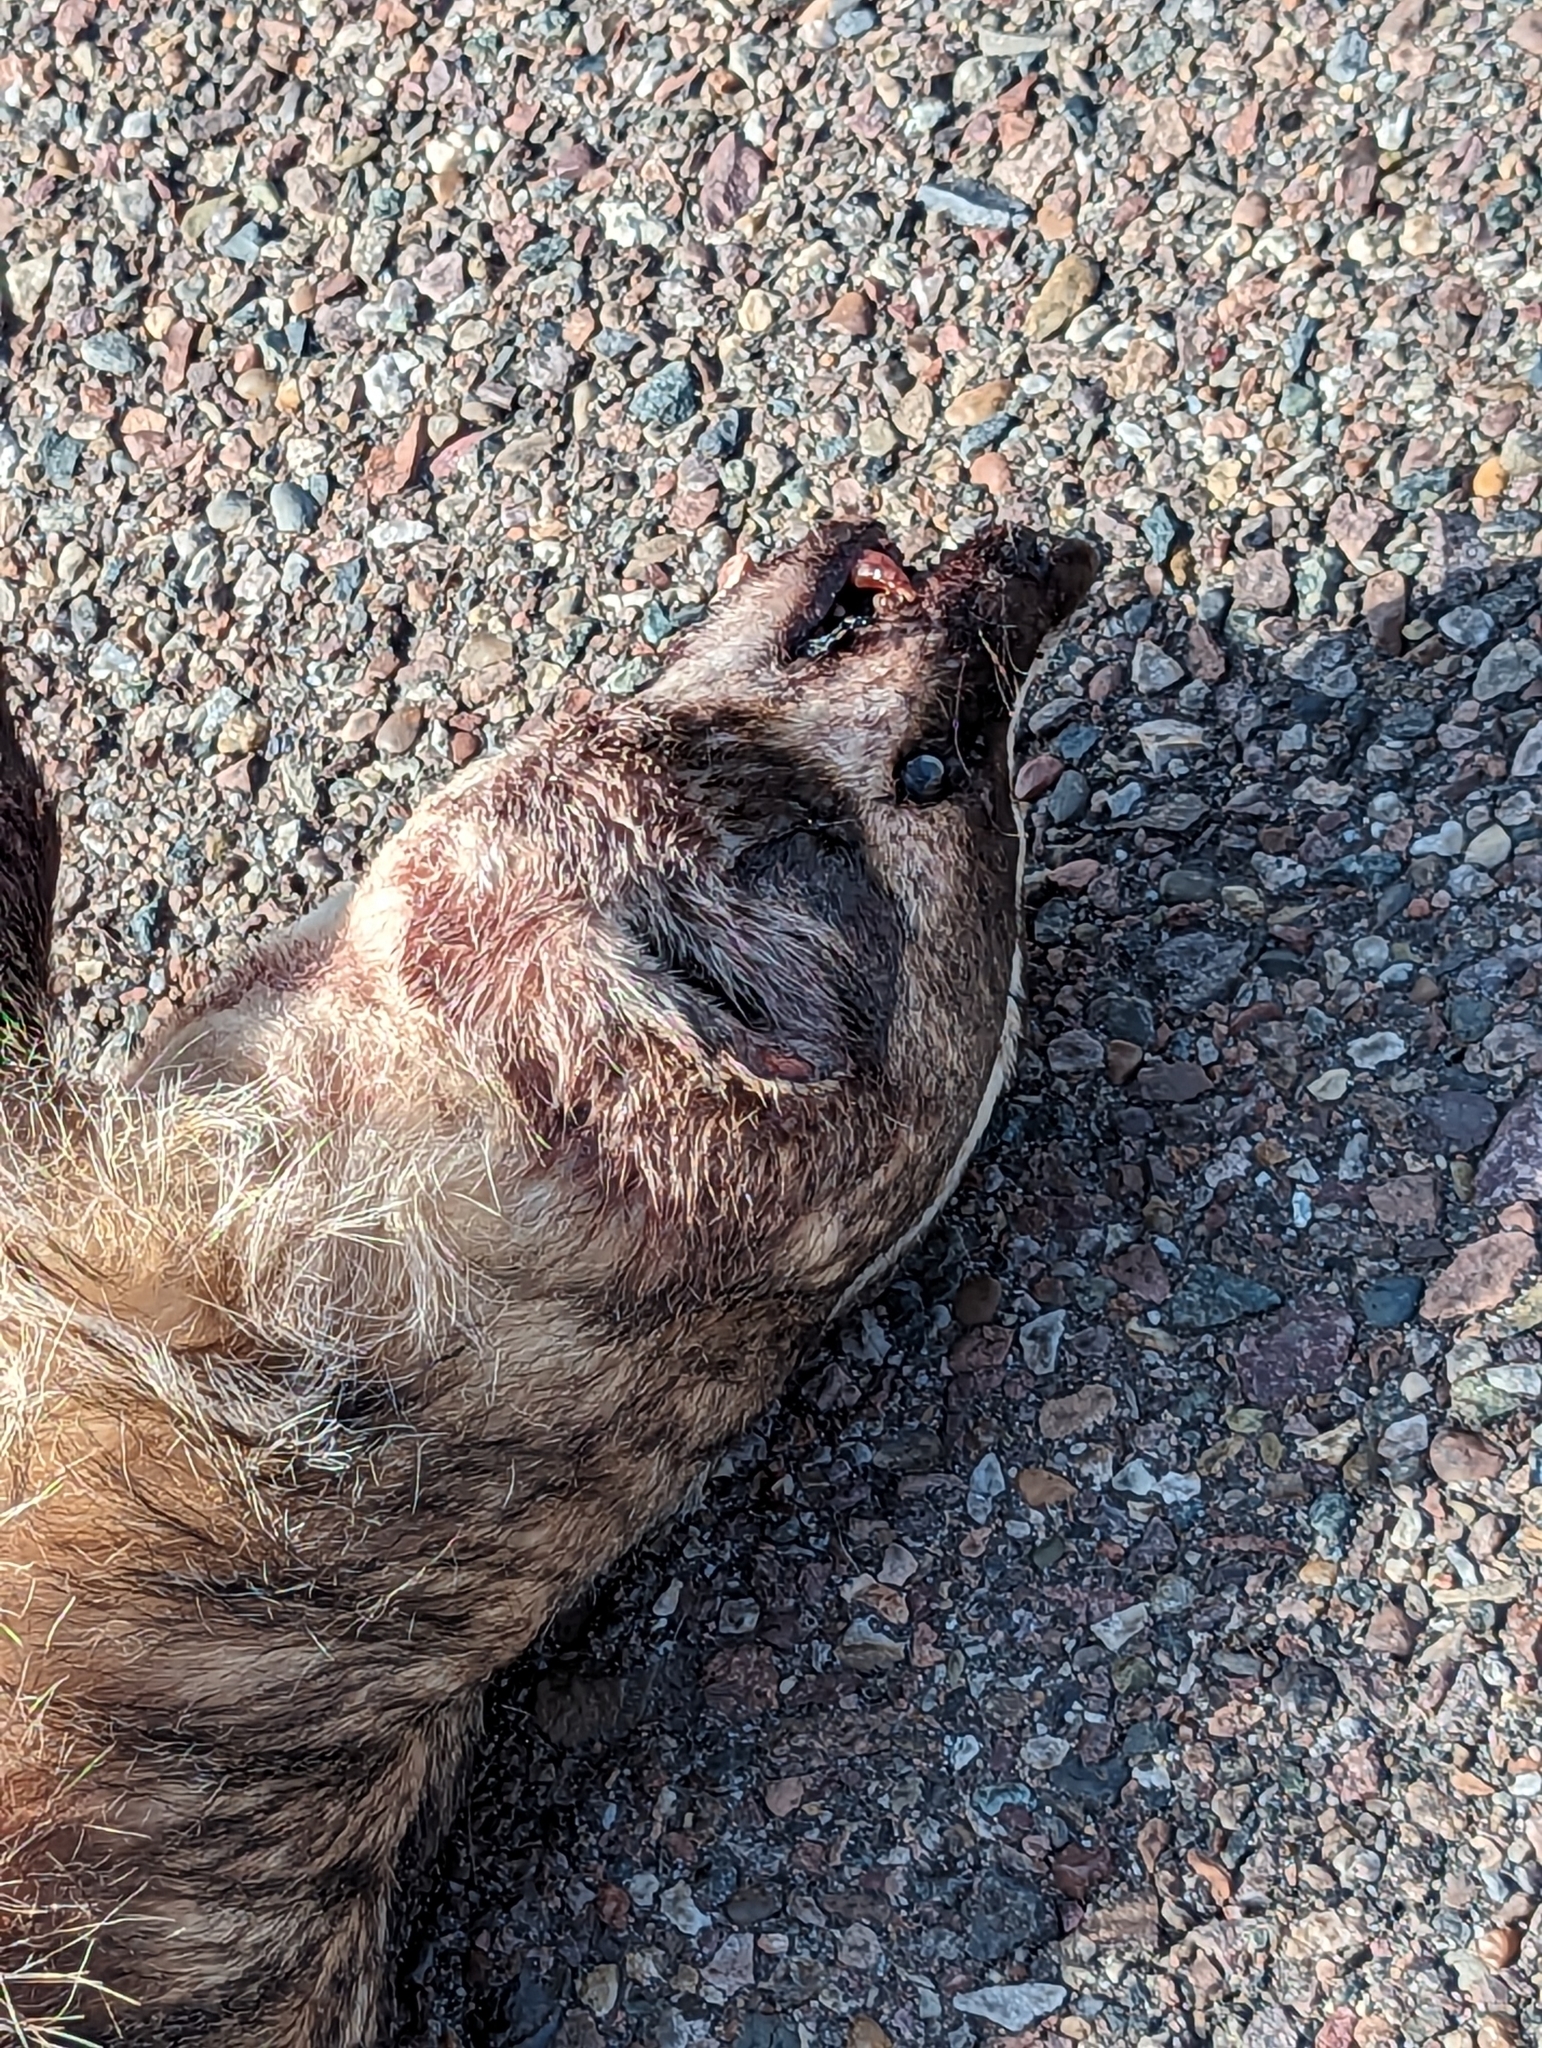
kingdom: Animalia
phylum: Chordata
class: Mammalia
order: Carnivora
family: Mustelidae
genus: Taxidea
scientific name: Taxidea taxus
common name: American badger
